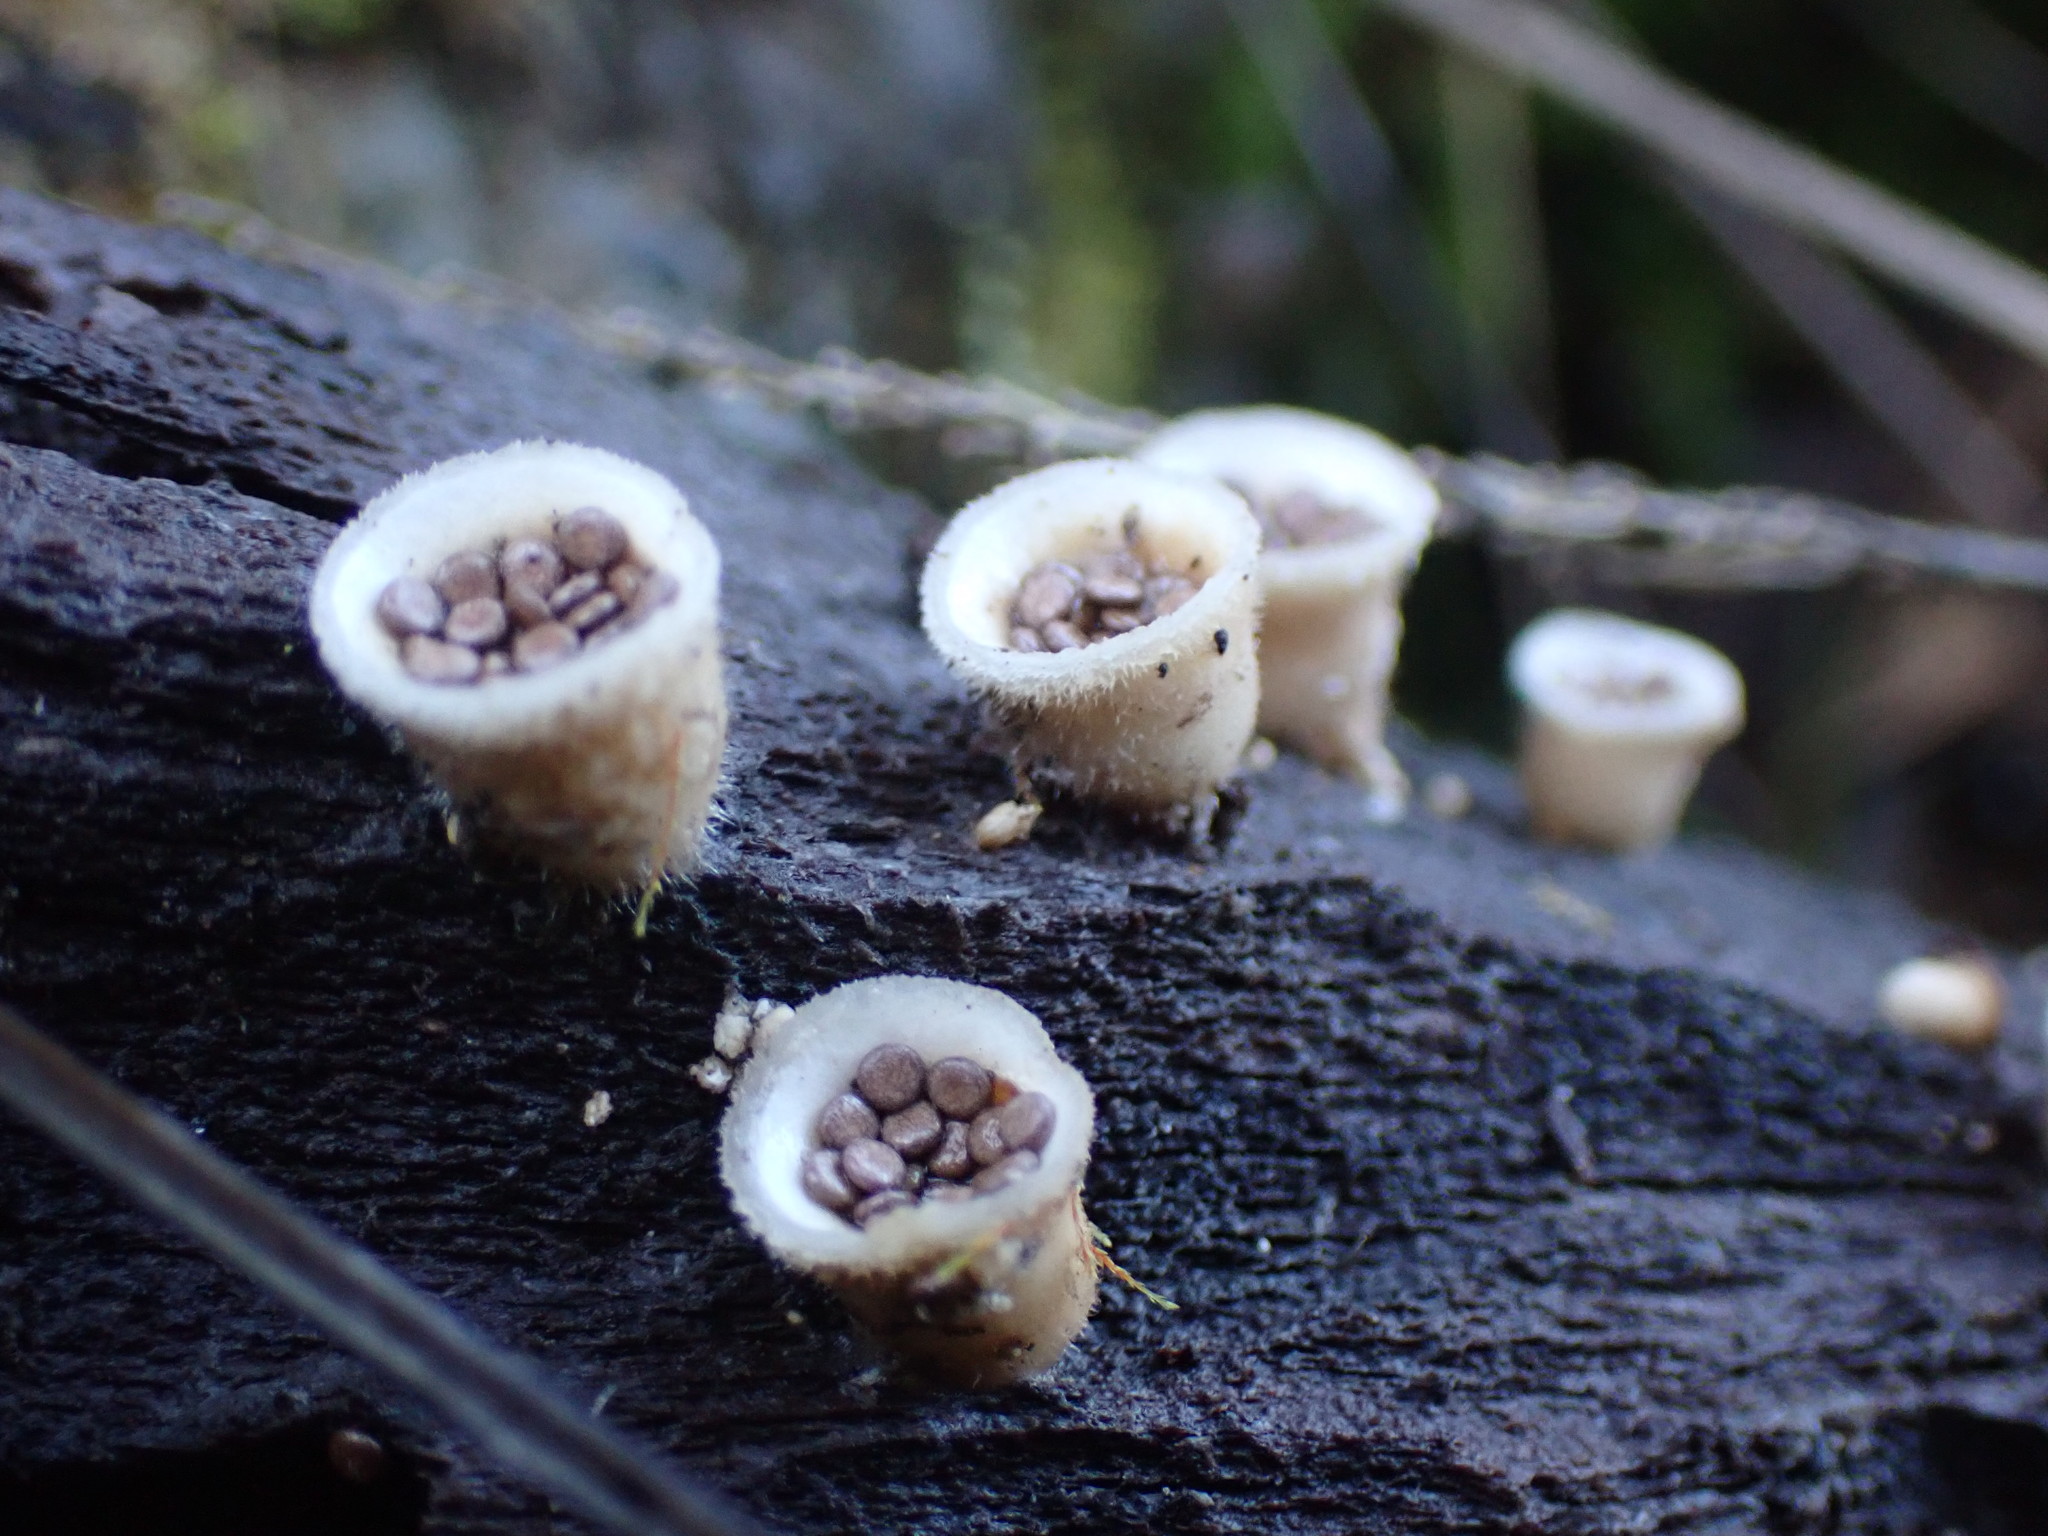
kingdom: Fungi
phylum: Basidiomycota
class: Agaricomycetes
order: Agaricales
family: Agaricaceae
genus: Nidula
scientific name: Nidula niveotomentosa
